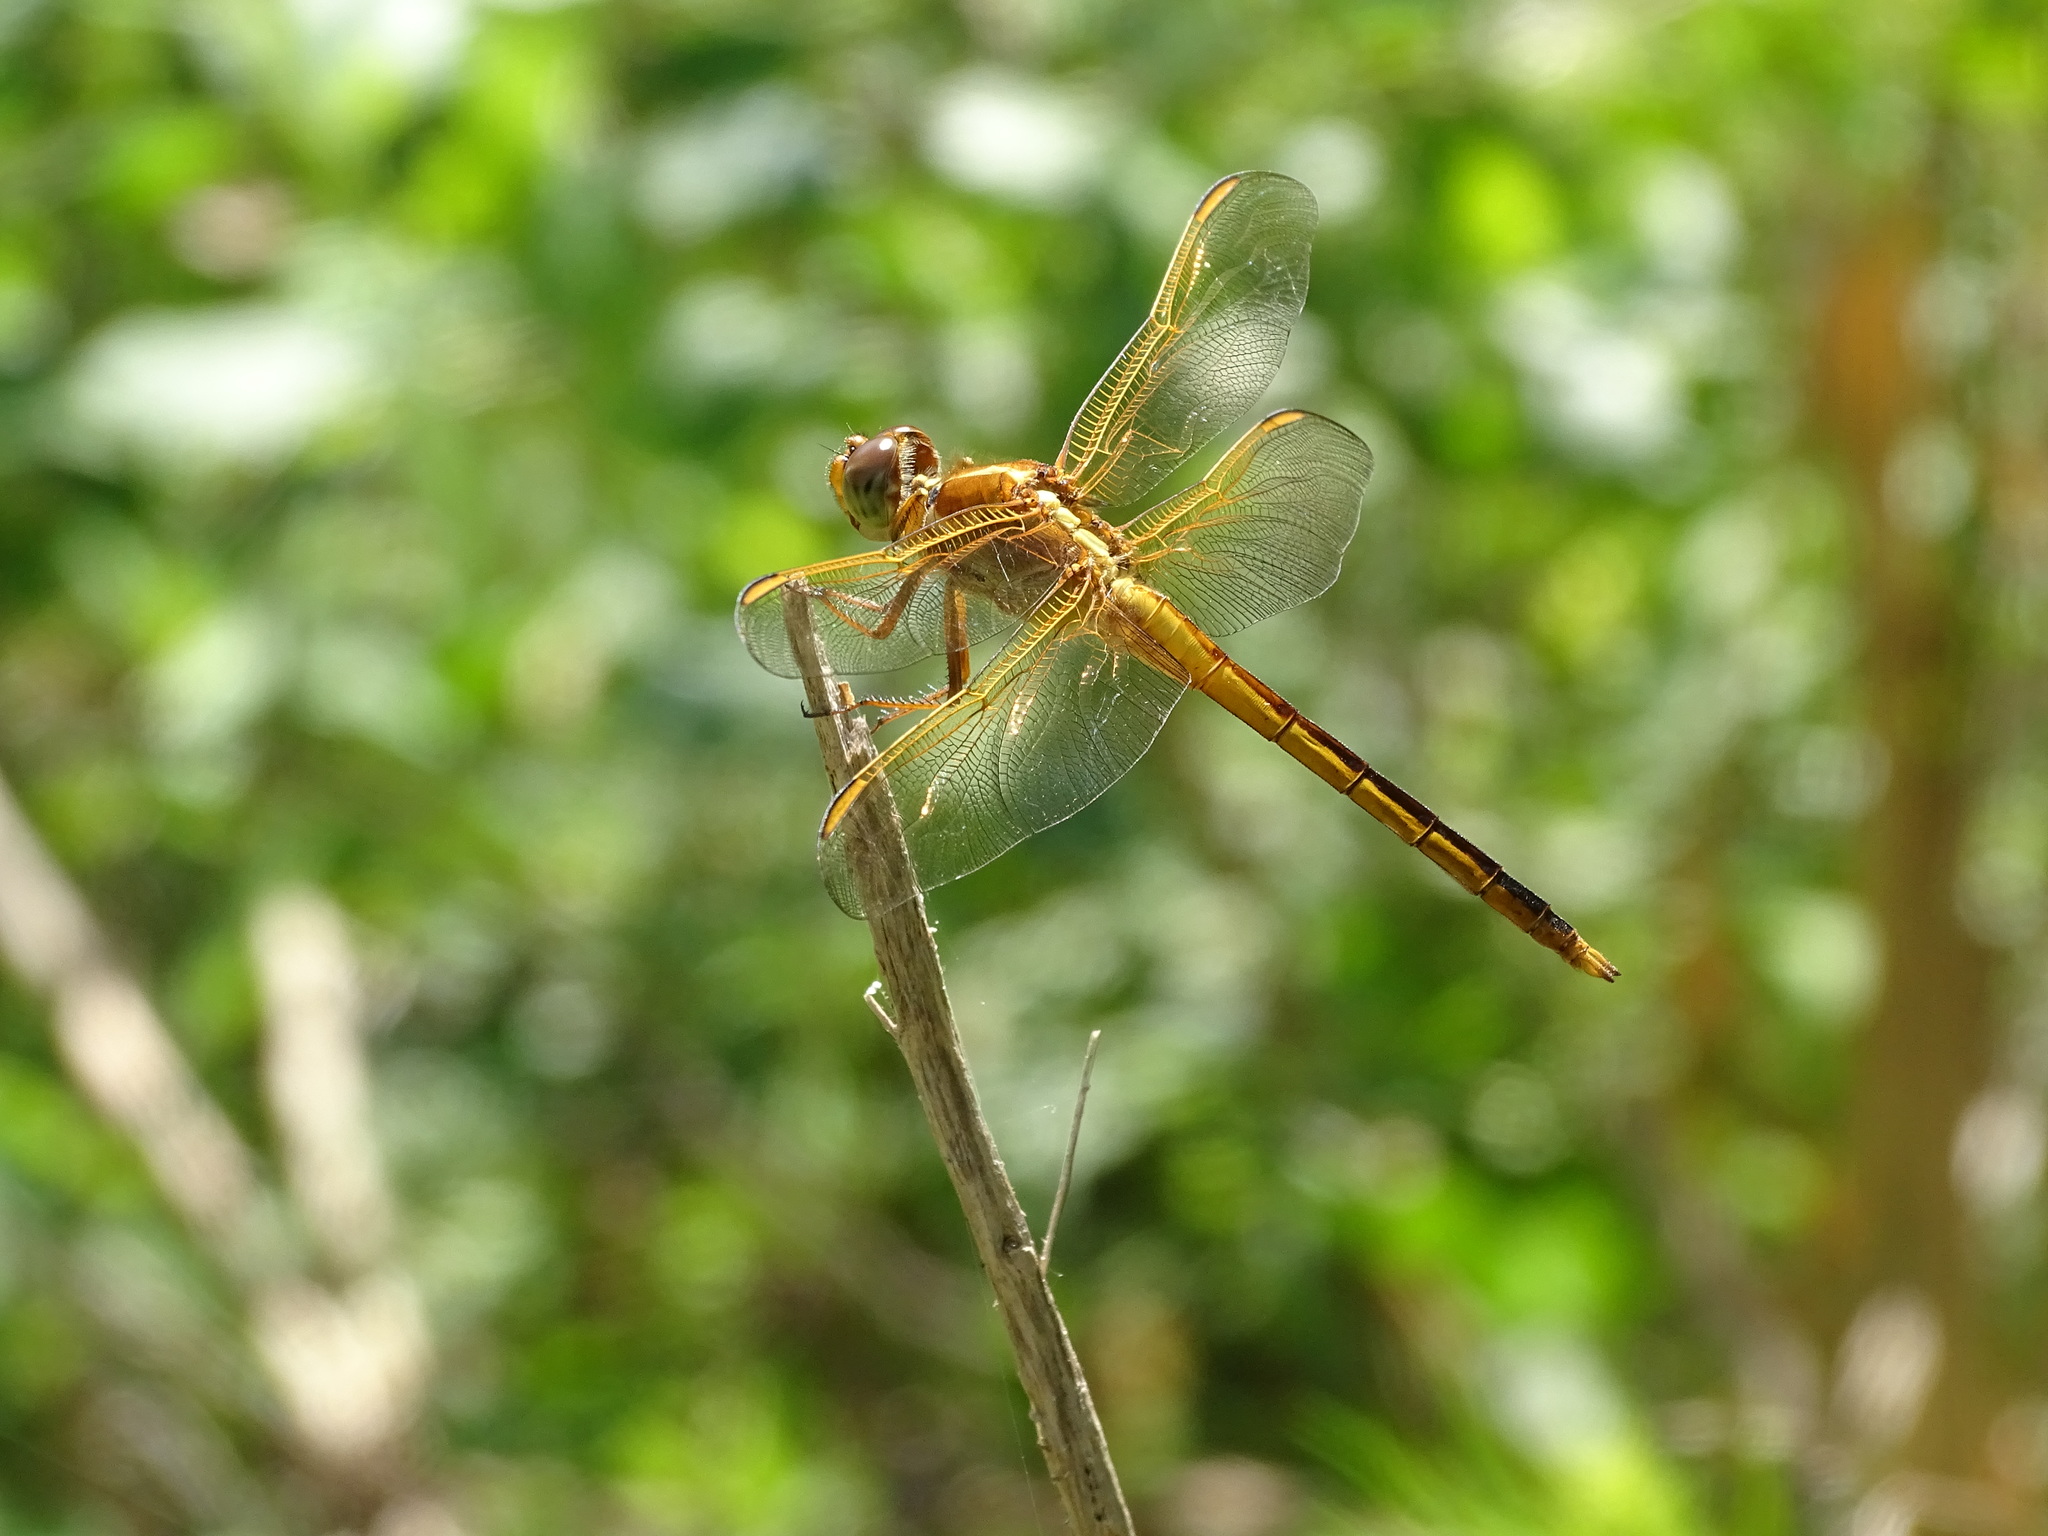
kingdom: Animalia
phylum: Arthropoda
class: Insecta
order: Odonata
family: Libellulidae
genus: Libellula
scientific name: Libellula needhami
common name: Needham's skimmer
